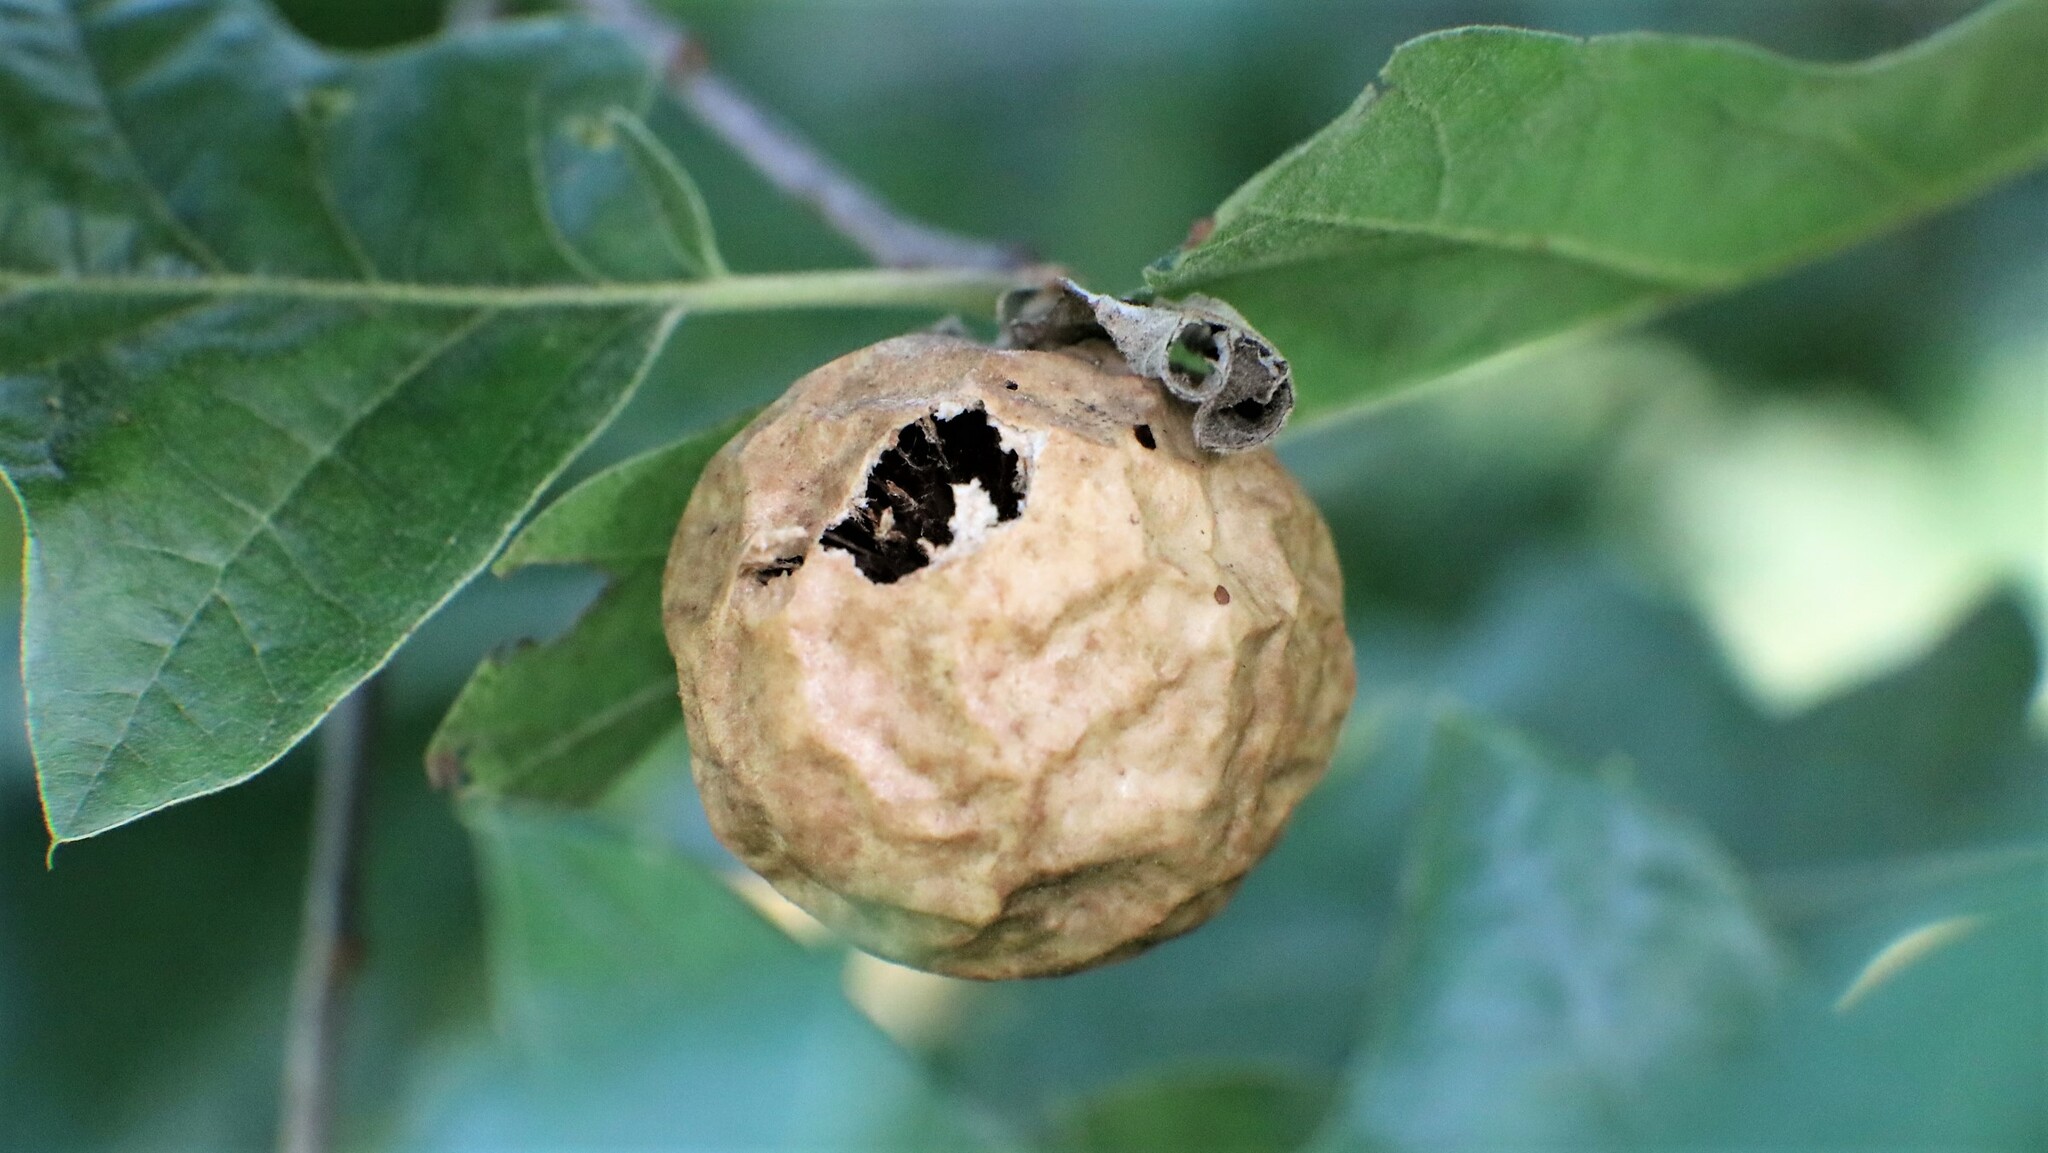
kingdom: Animalia
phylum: Arthropoda
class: Insecta
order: Hymenoptera
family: Cynipidae
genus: Amphibolips
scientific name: Amphibolips
